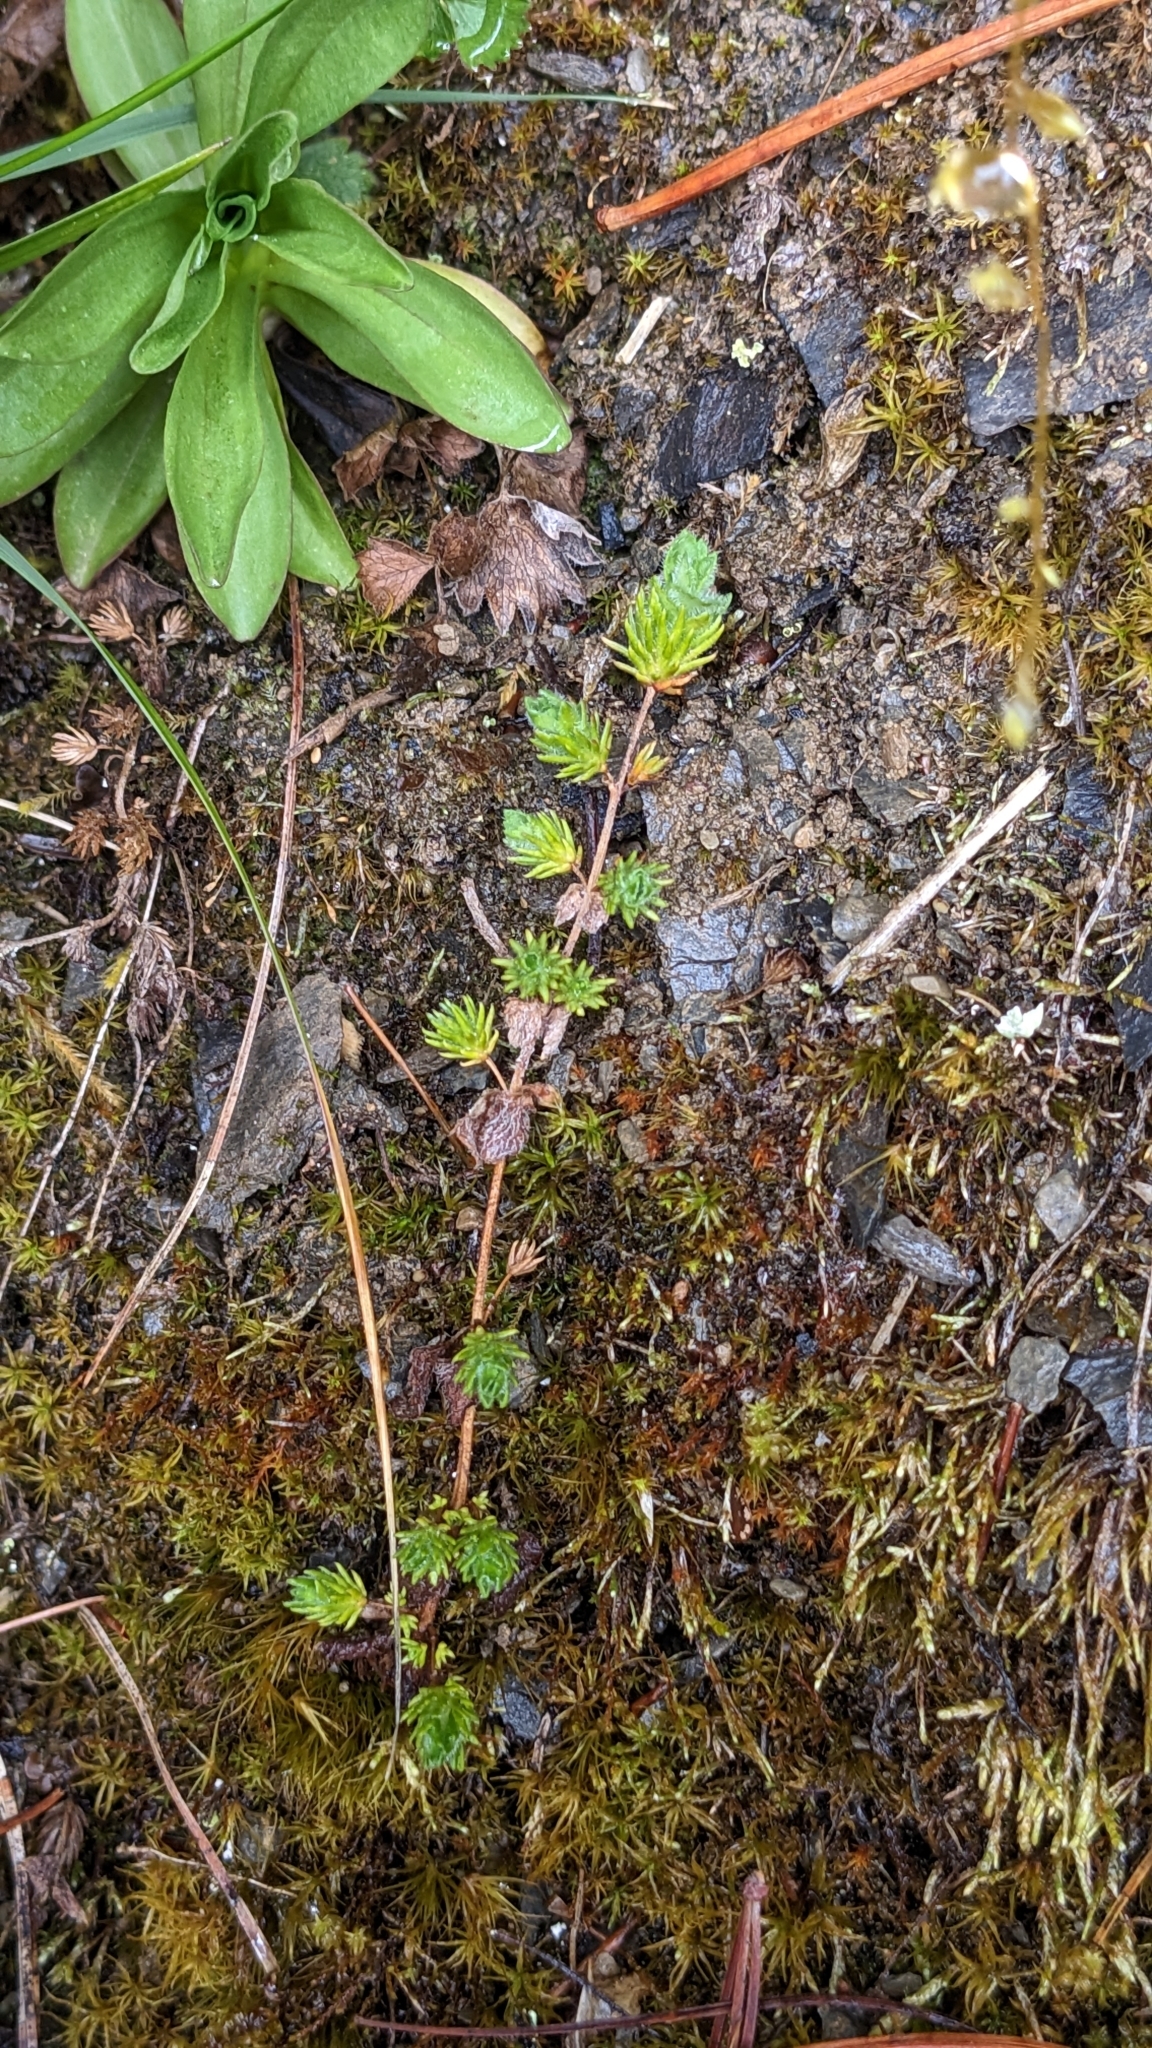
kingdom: Plantae
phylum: Tracheophyta
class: Magnoliopsida
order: Lamiales
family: Plantaginaceae
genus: Hemiphragma
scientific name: Hemiphragma heterophyllum
